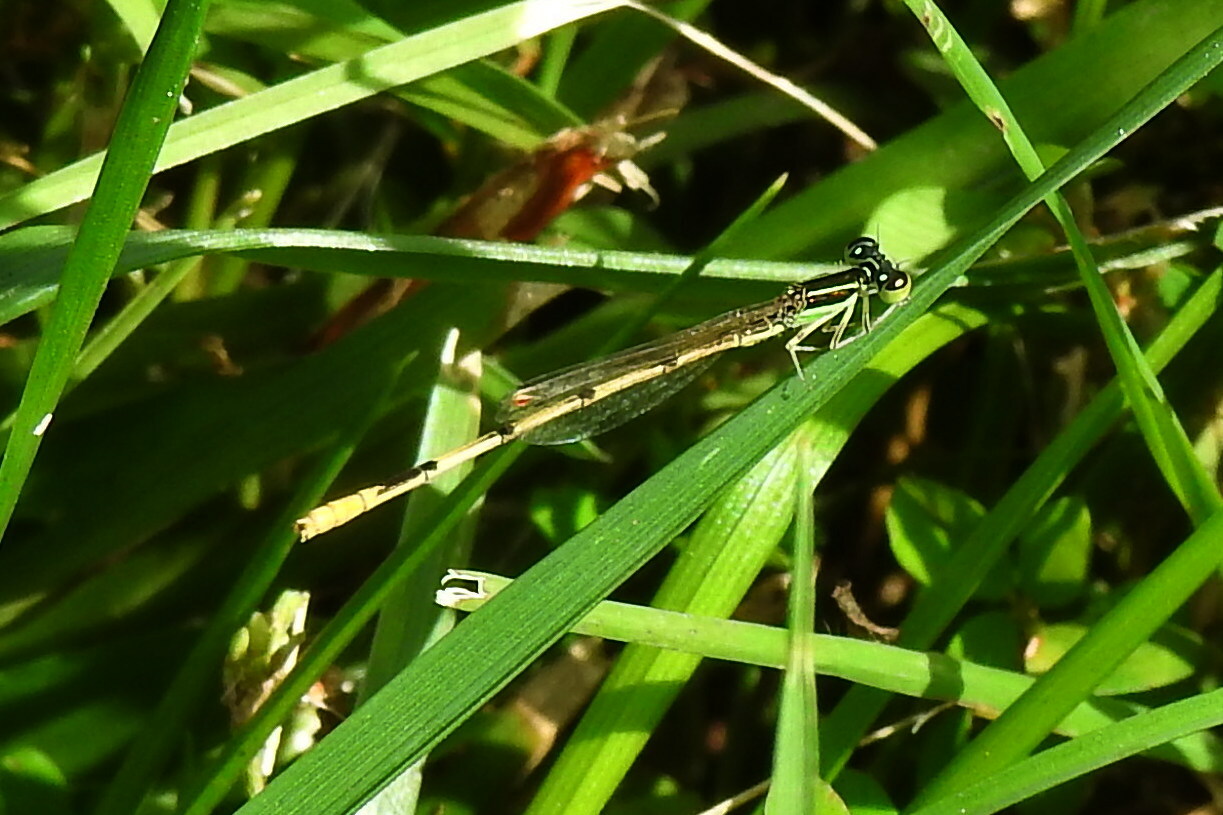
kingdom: Animalia
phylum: Arthropoda
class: Insecta
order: Odonata
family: Coenagrionidae
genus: Ischnura
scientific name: Ischnura hastata
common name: Citrine forktail
